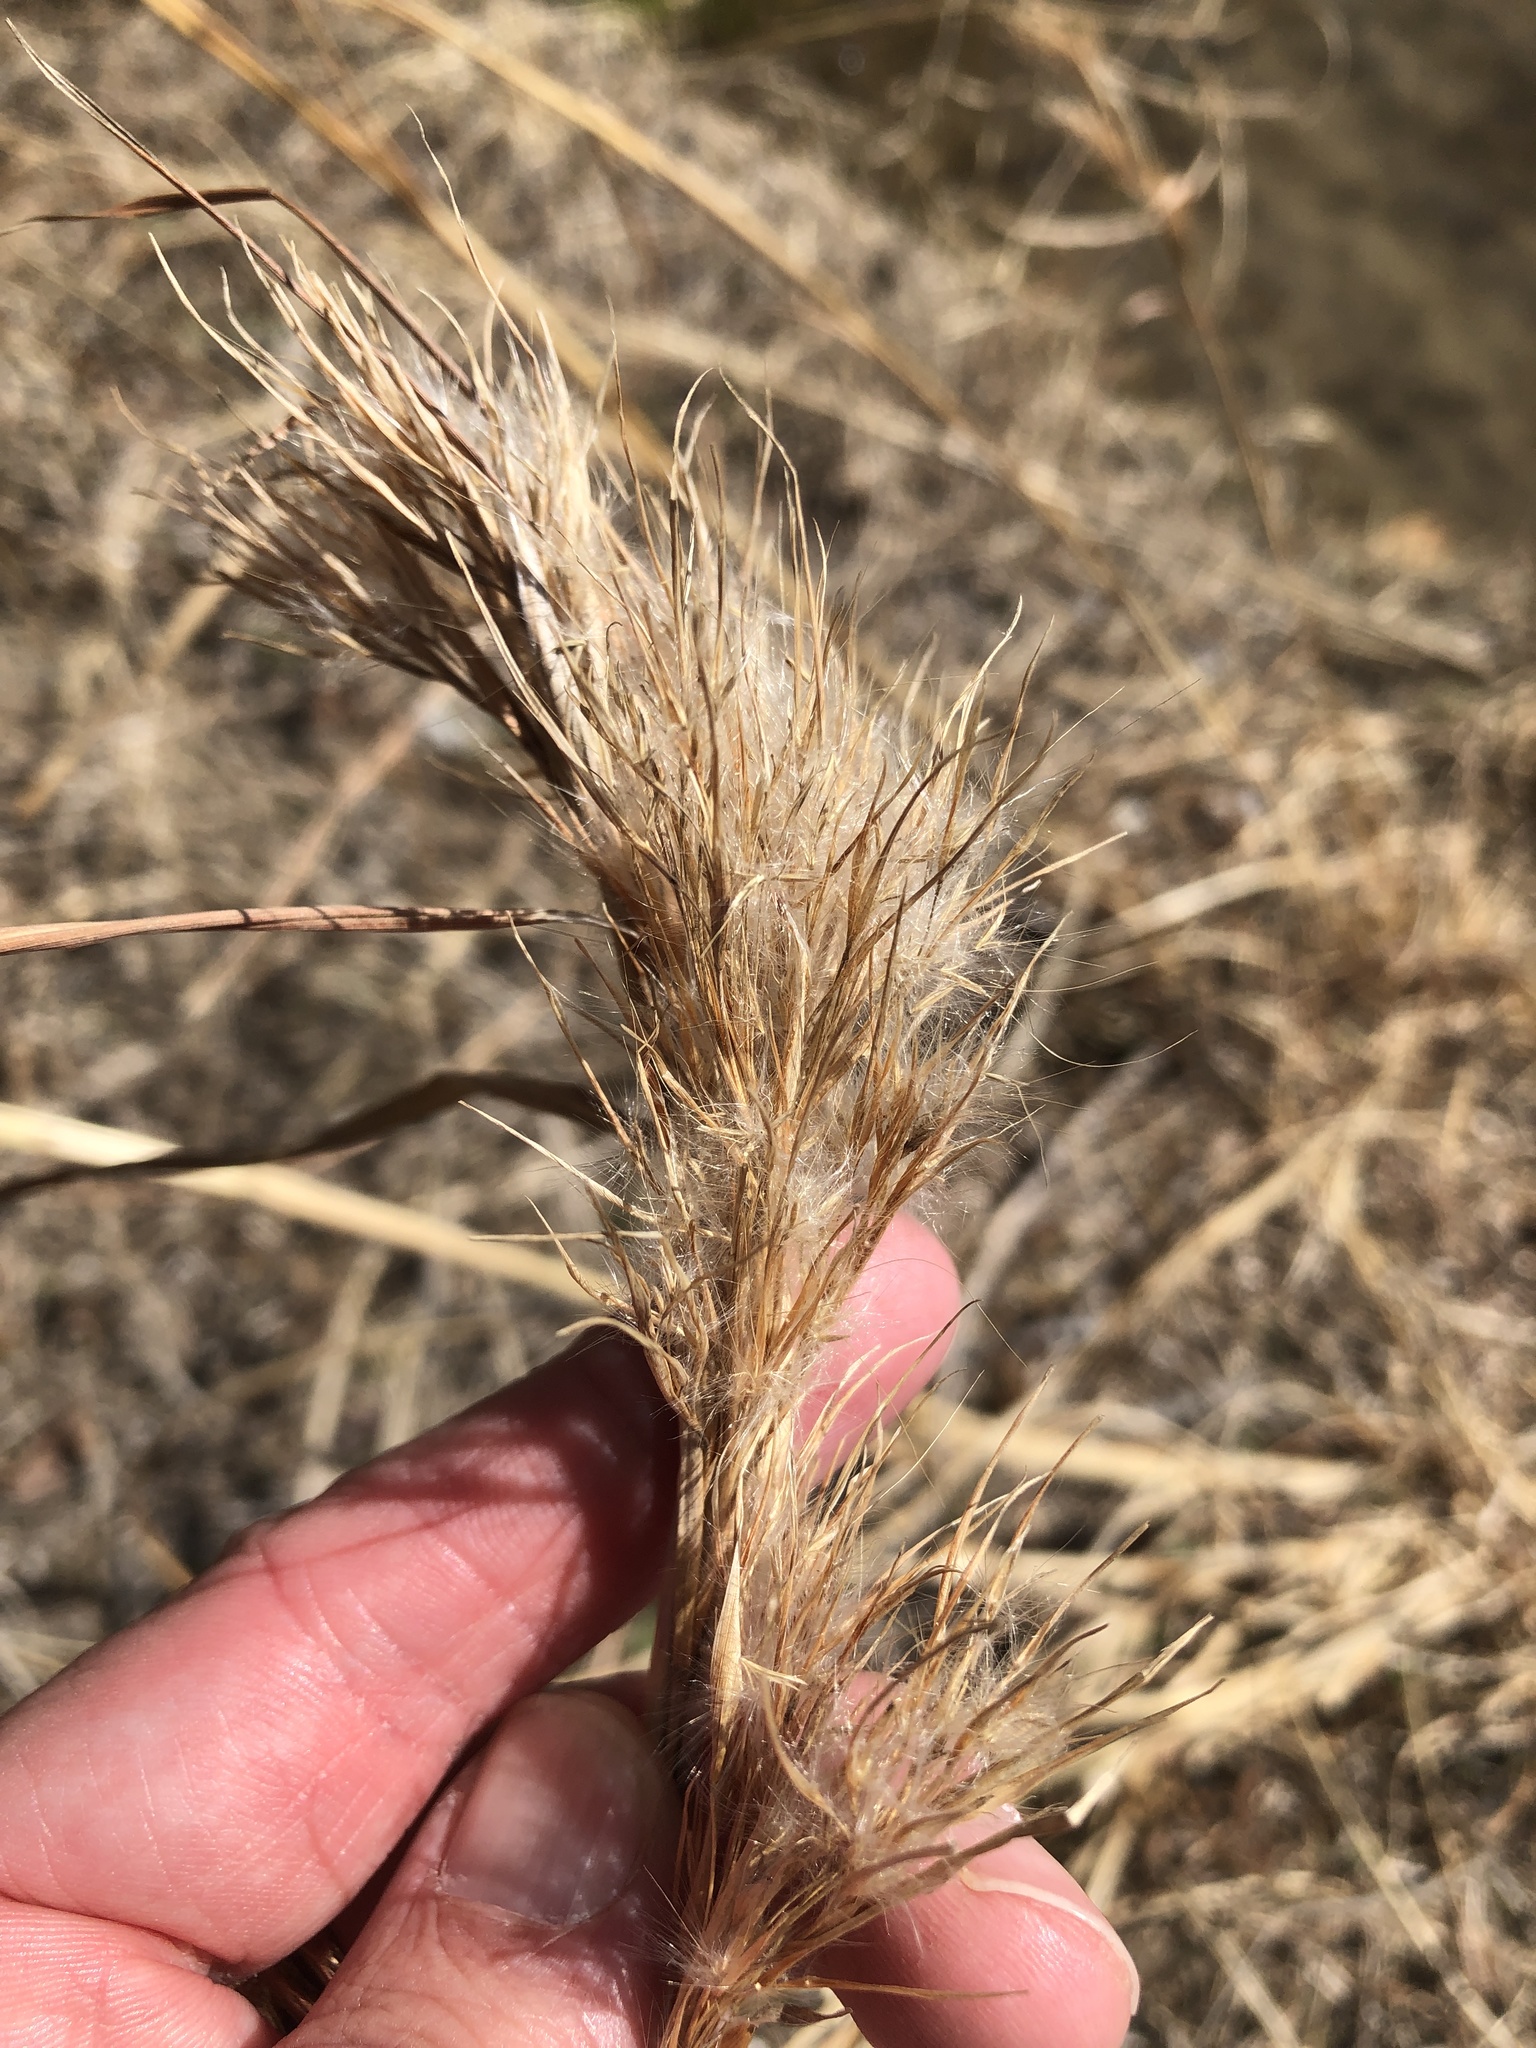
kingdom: Plantae
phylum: Tracheophyta
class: Liliopsida
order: Poales
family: Poaceae
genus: Andropogon
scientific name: Andropogon tenuispatheus
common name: Bushy bluestem
